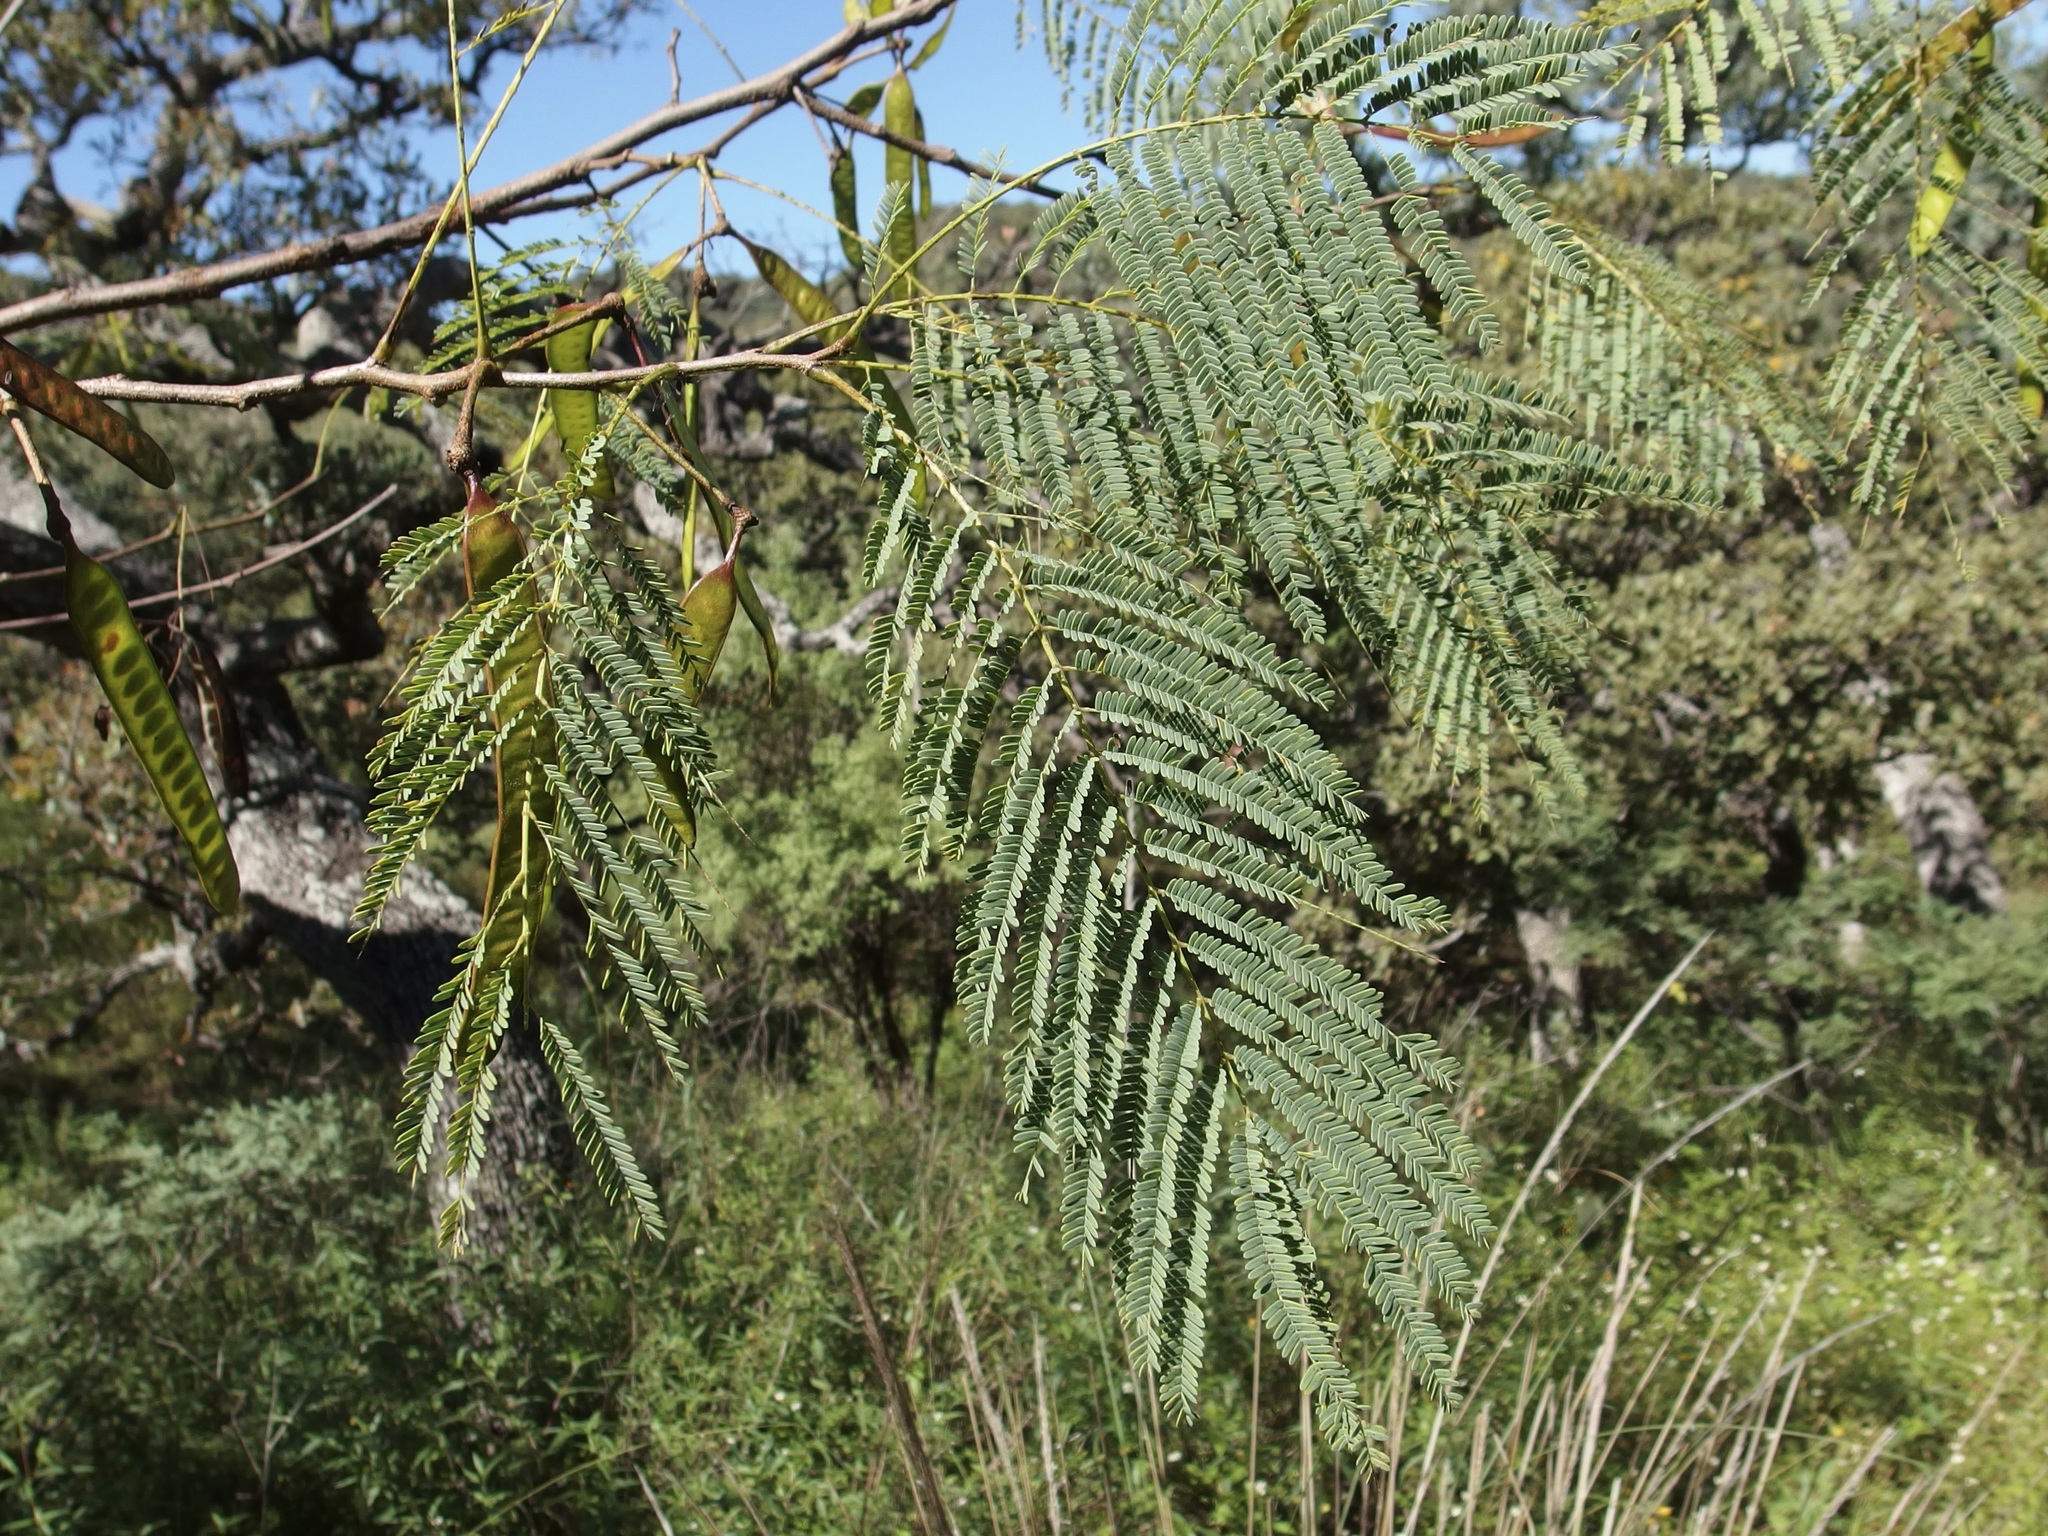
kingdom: Plantae
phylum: Tracheophyta
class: Magnoliopsida
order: Fabales
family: Fabaceae
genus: Leucaena
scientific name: Leucaena involucrata
